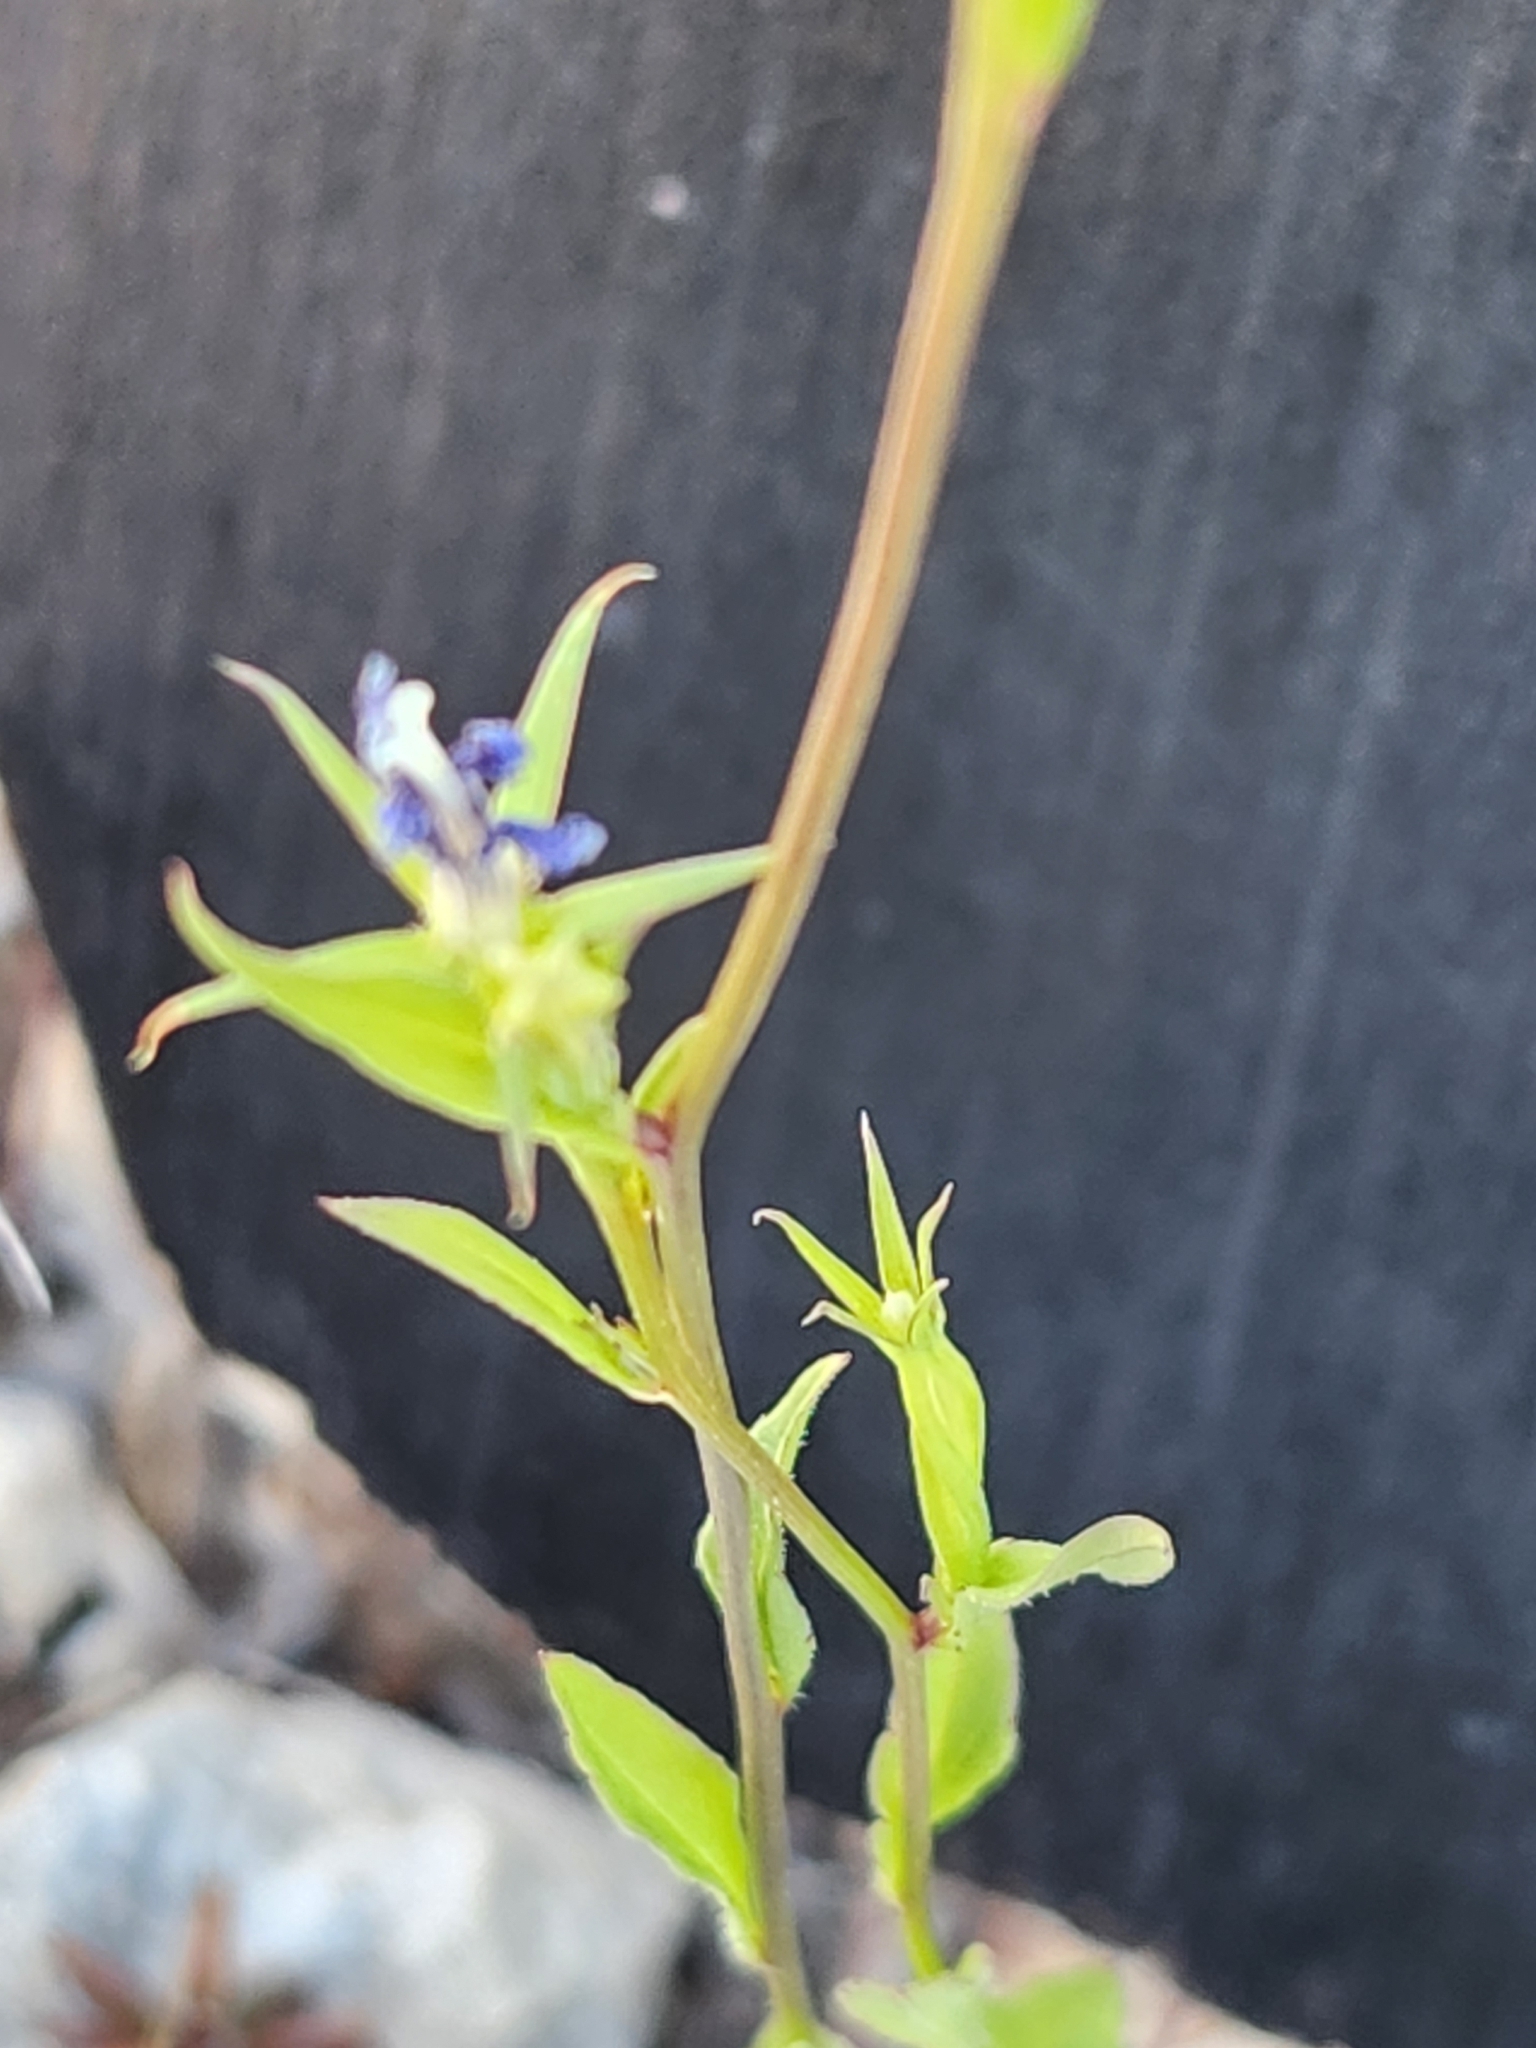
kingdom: Plantae
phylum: Tracheophyta
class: Magnoliopsida
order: Asterales
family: Campanulaceae
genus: Triodanis
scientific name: Triodanis coloradoensis
